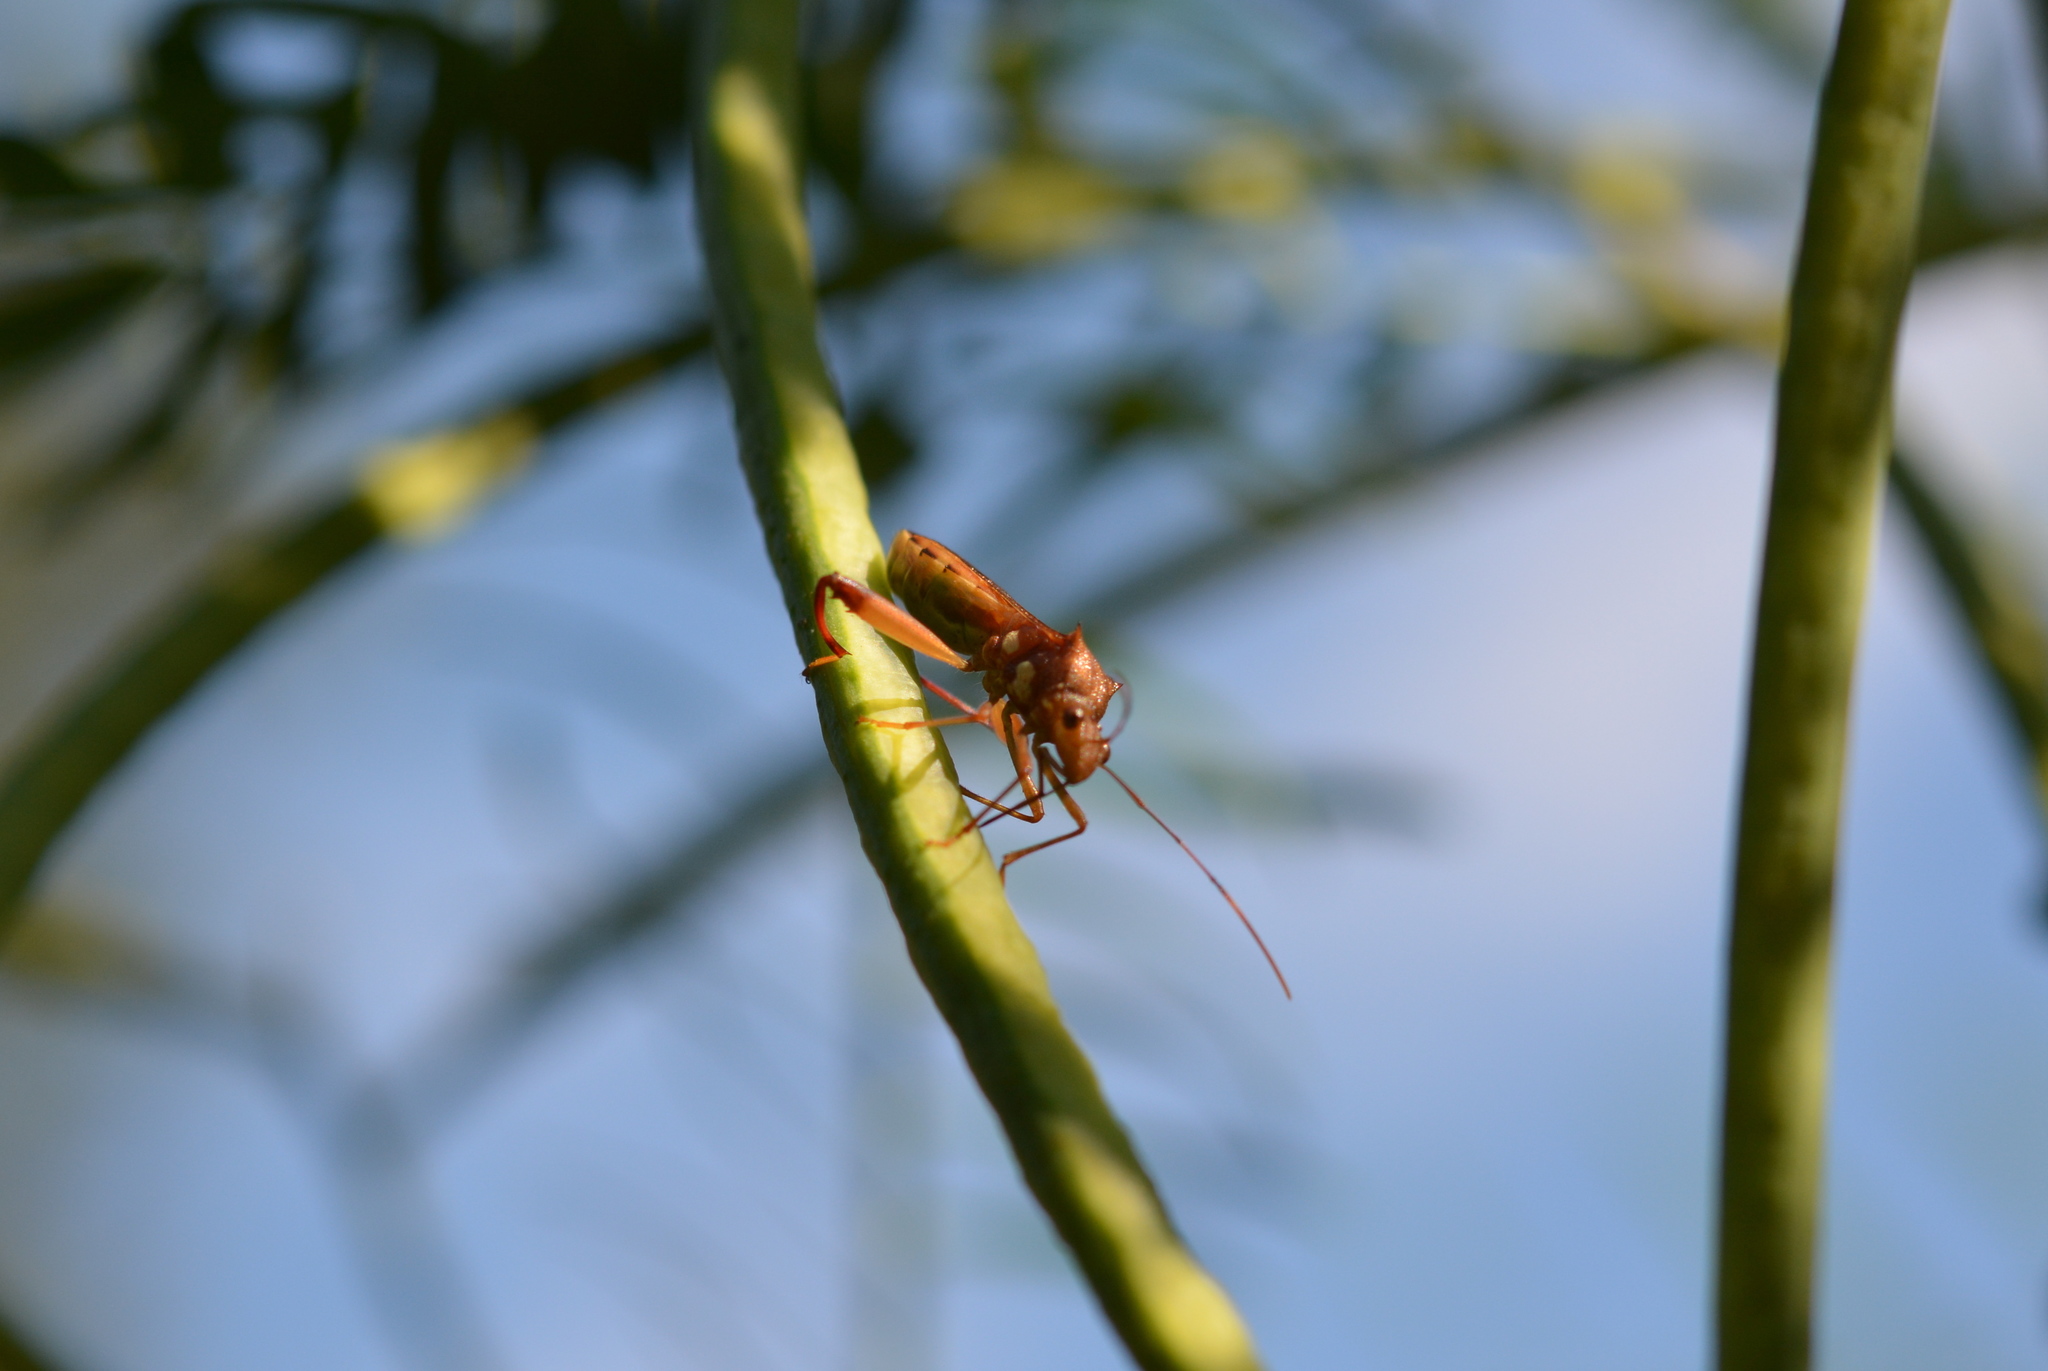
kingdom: Animalia
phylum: Arthropoda
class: Insecta
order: Hemiptera
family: Alydidae
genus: Hyalymenus
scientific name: Hyalymenus tarsatus
